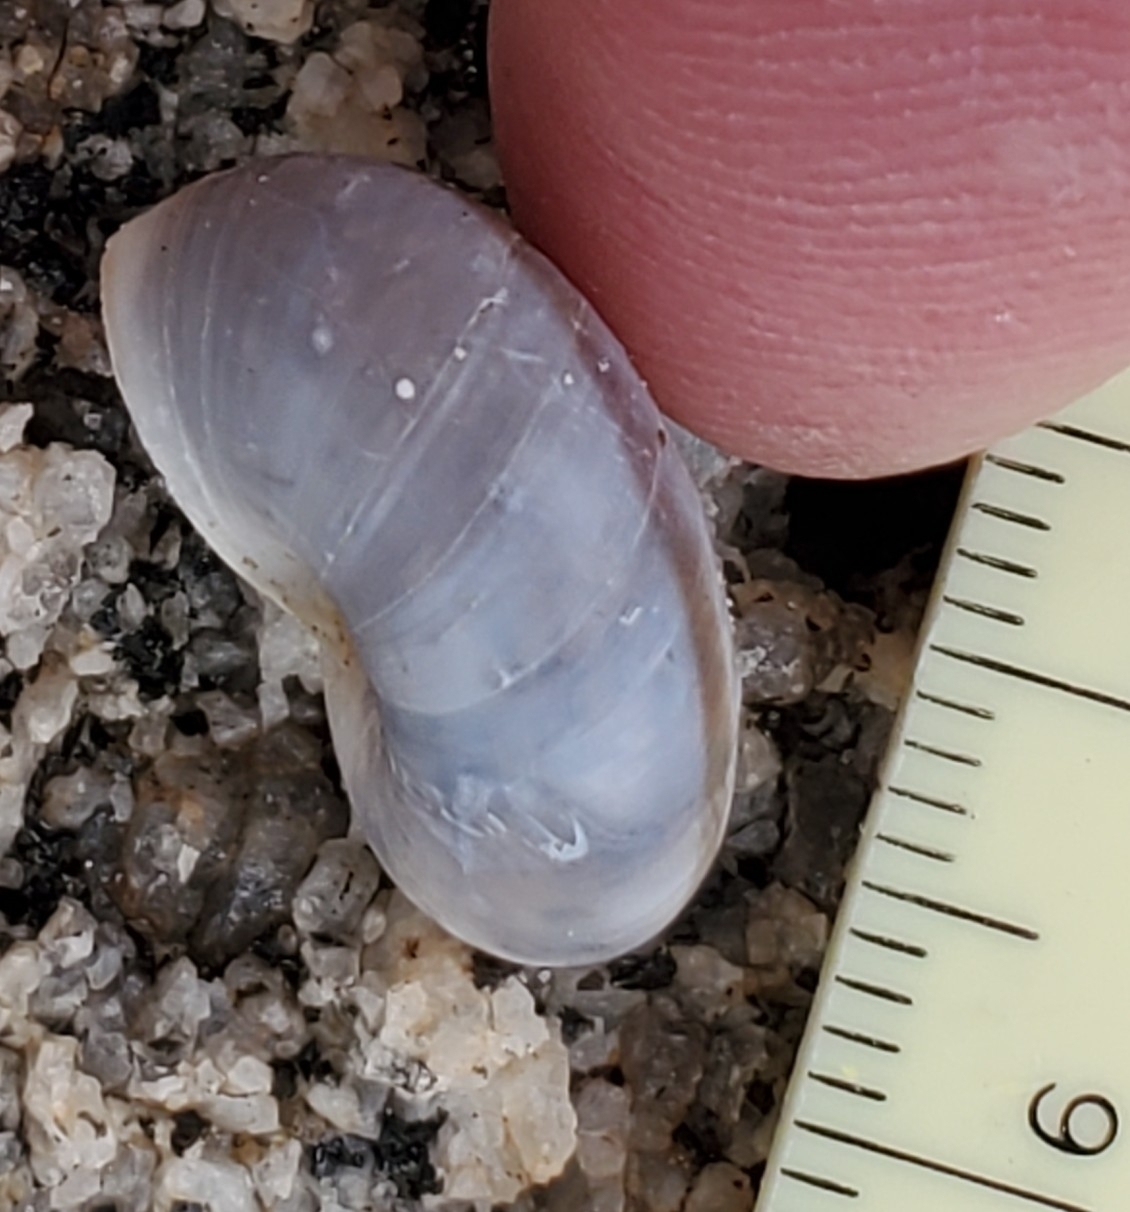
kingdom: Animalia
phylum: Mollusca
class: Gastropoda
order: Stylommatophora
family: Xanthonychidae
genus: Sonorelix
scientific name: Sonorelix borregoensis
